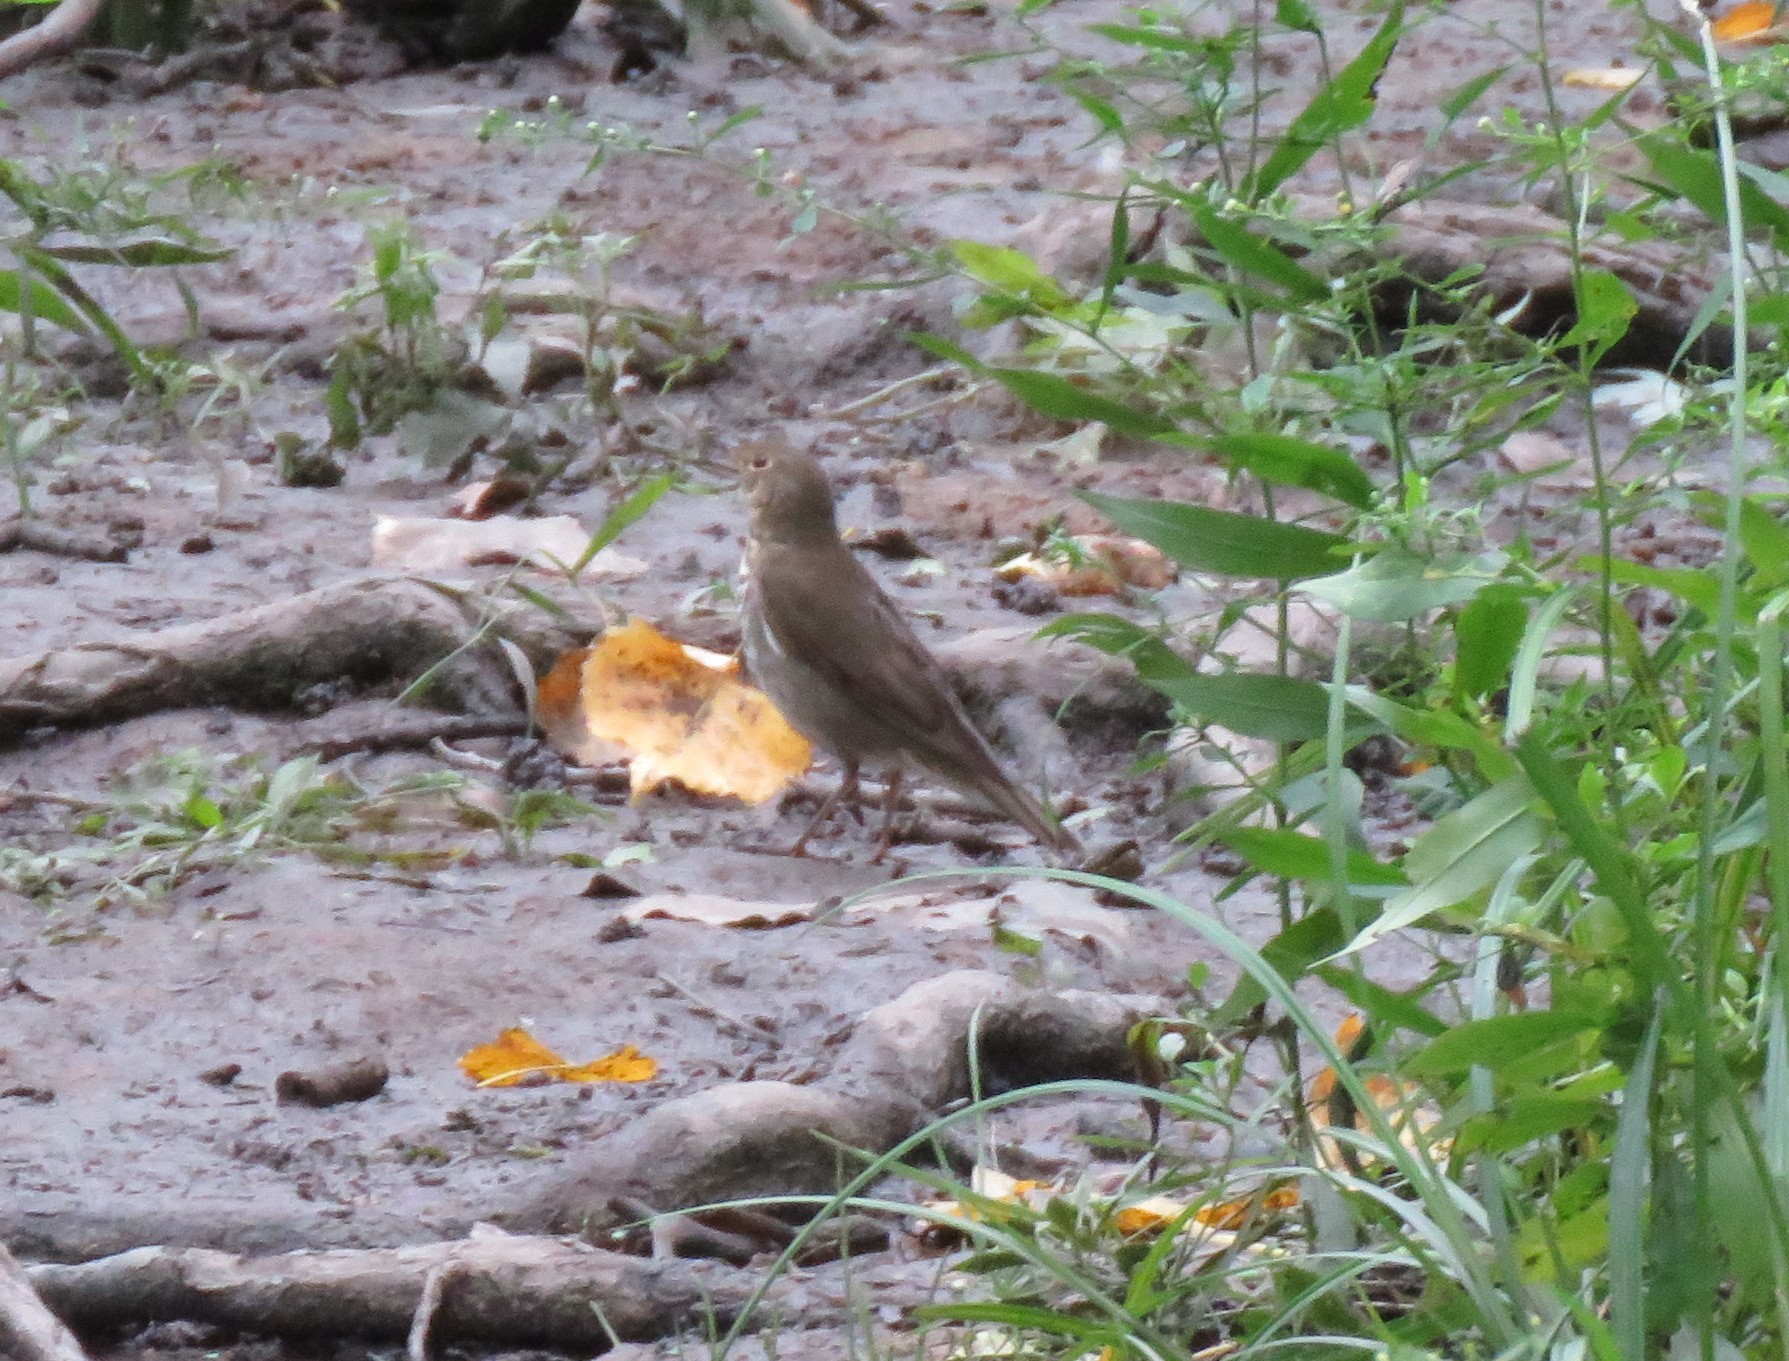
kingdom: Animalia
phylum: Chordata
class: Aves
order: Passeriformes
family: Turdidae
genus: Catharus
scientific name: Catharus ustulatus
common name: Swainson's thrush
